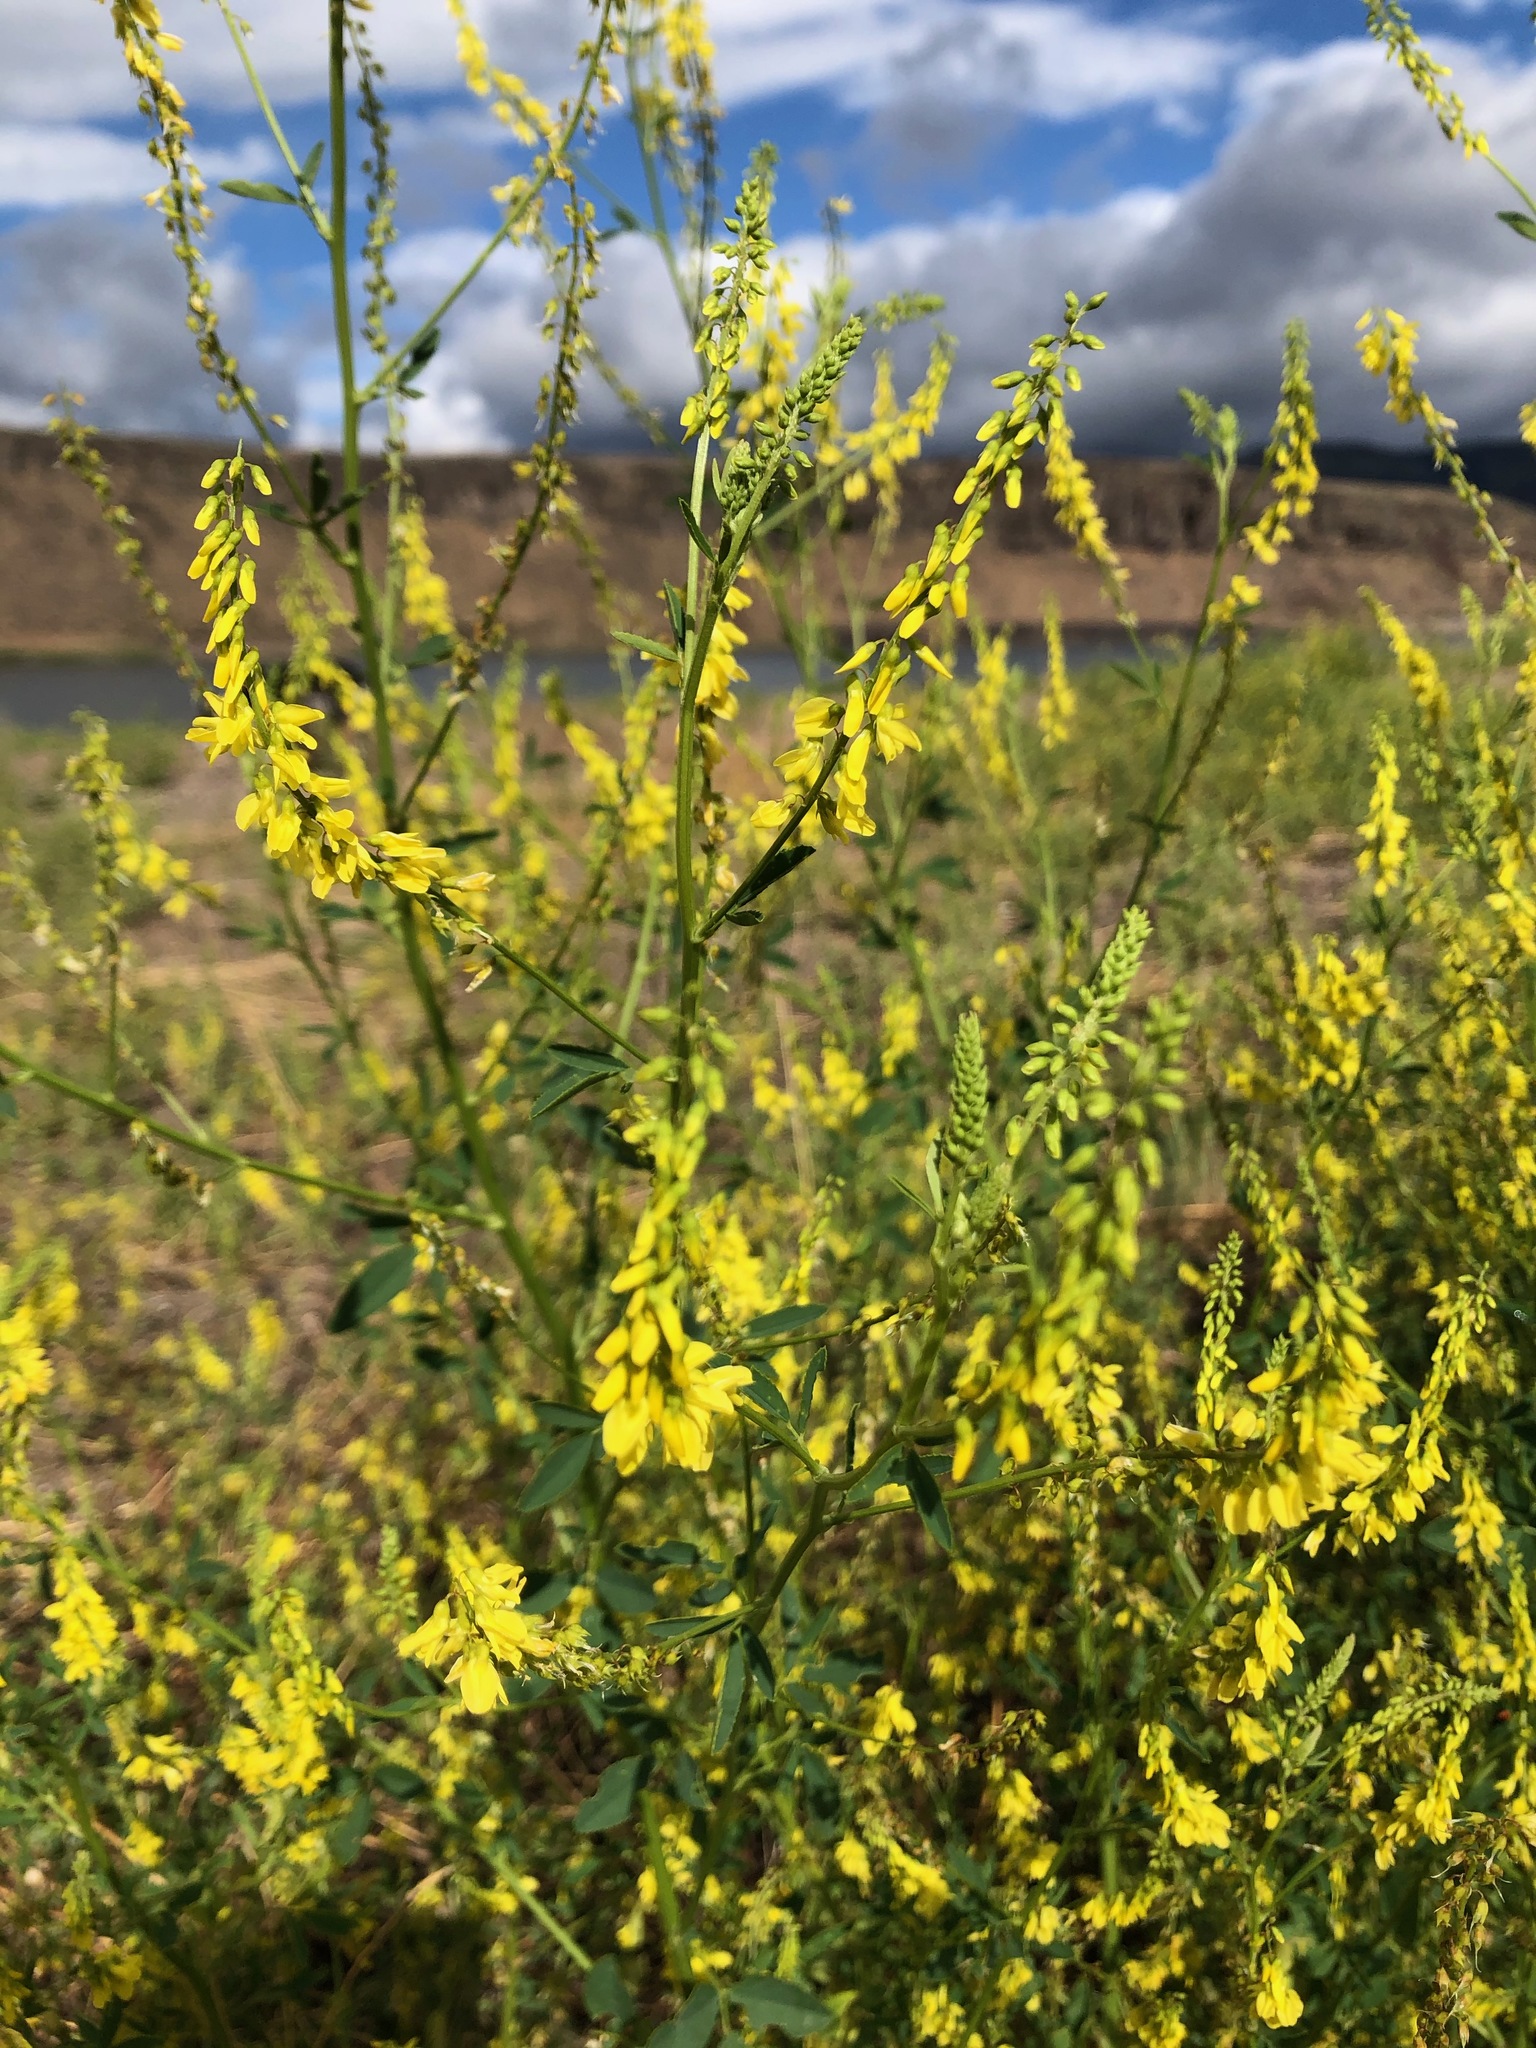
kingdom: Plantae
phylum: Tracheophyta
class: Magnoliopsida
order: Fabales
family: Fabaceae
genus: Melilotus
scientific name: Melilotus officinalis
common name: Sweetclover
